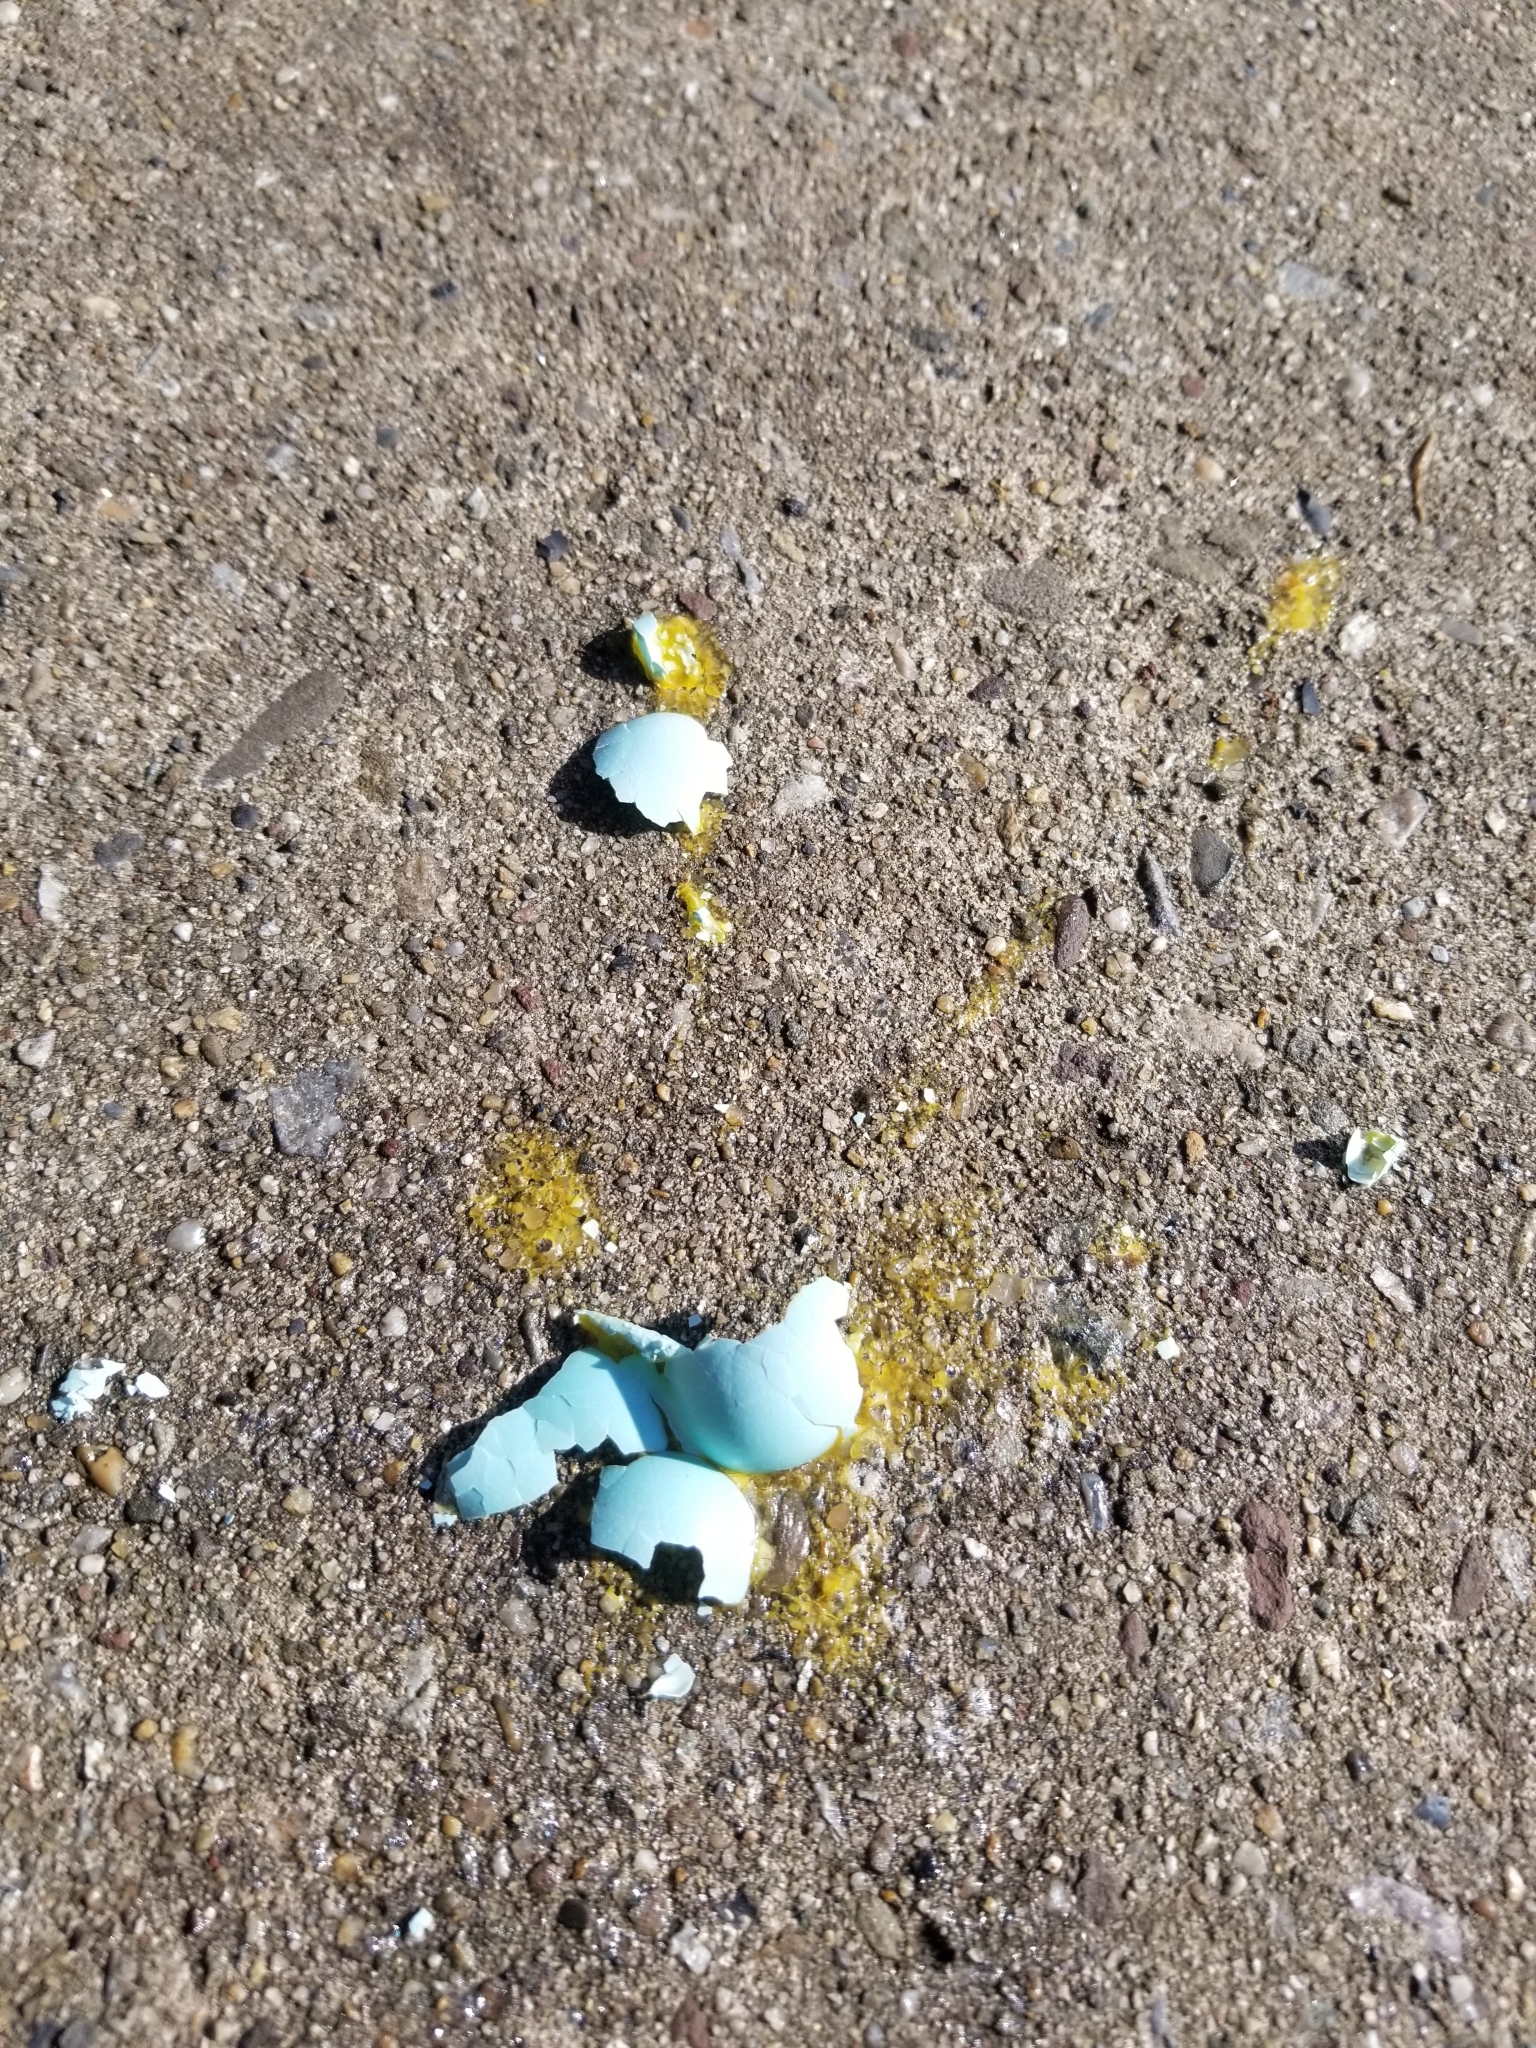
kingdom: Animalia
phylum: Chordata
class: Aves
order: Passeriformes
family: Turdidae
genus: Turdus
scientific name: Turdus migratorius
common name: American robin
